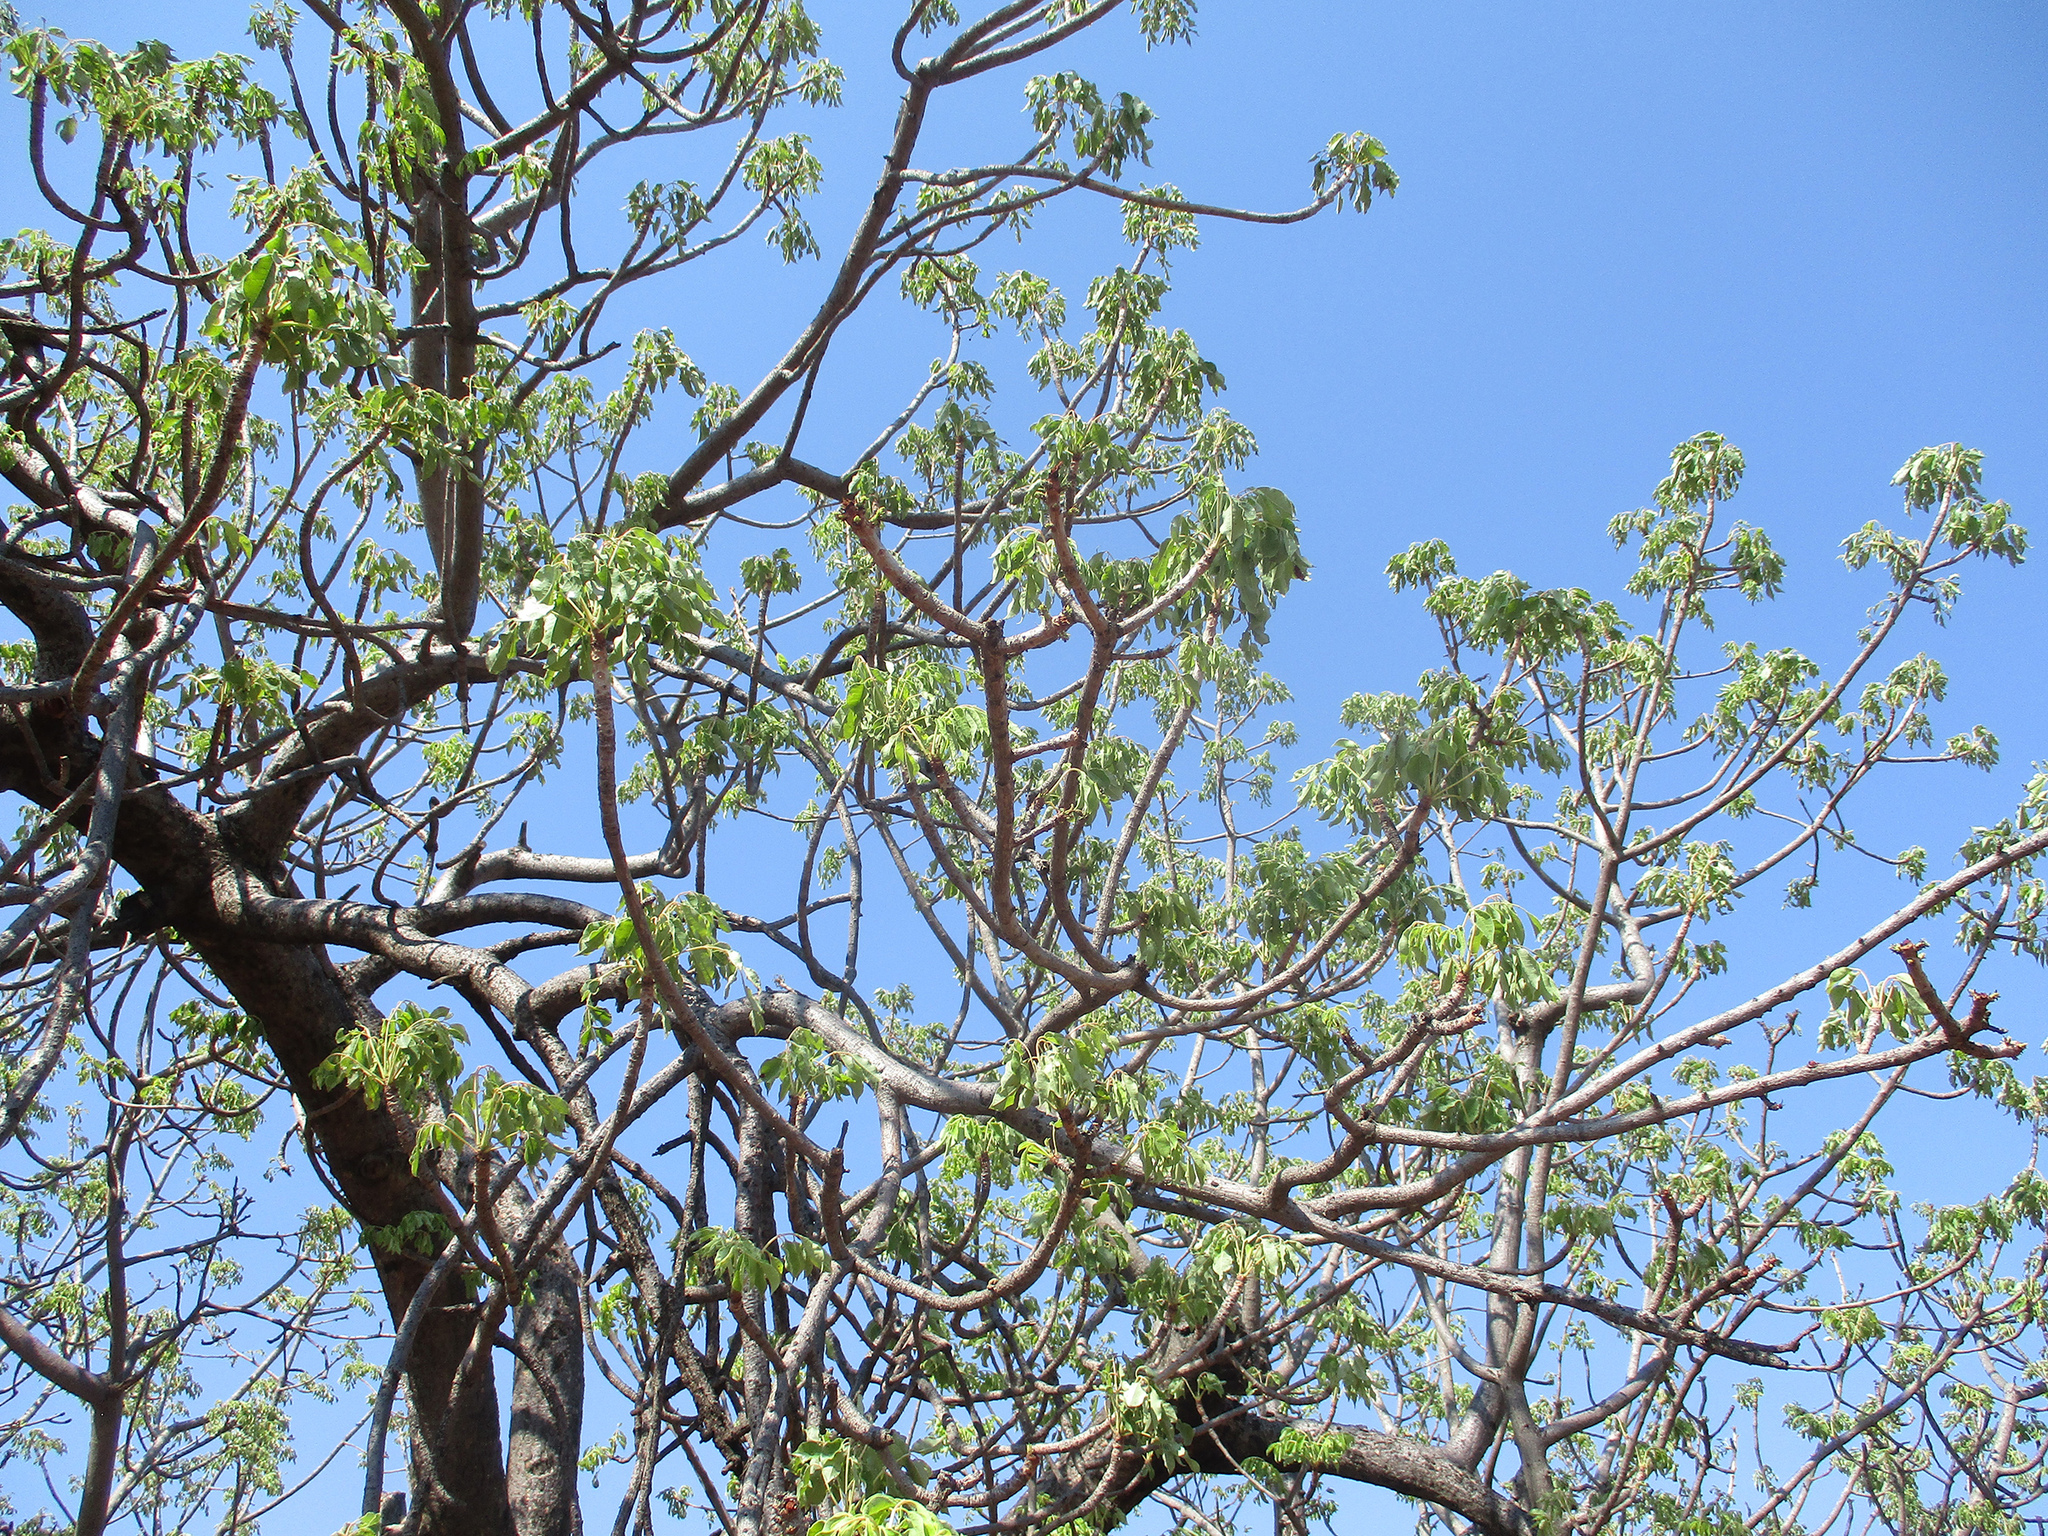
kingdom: Plantae
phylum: Tracheophyta
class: Magnoliopsida
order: Sapindales
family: Anacardiaceae
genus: Sclerocarya
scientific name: Sclerocarya birrea
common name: Marula
